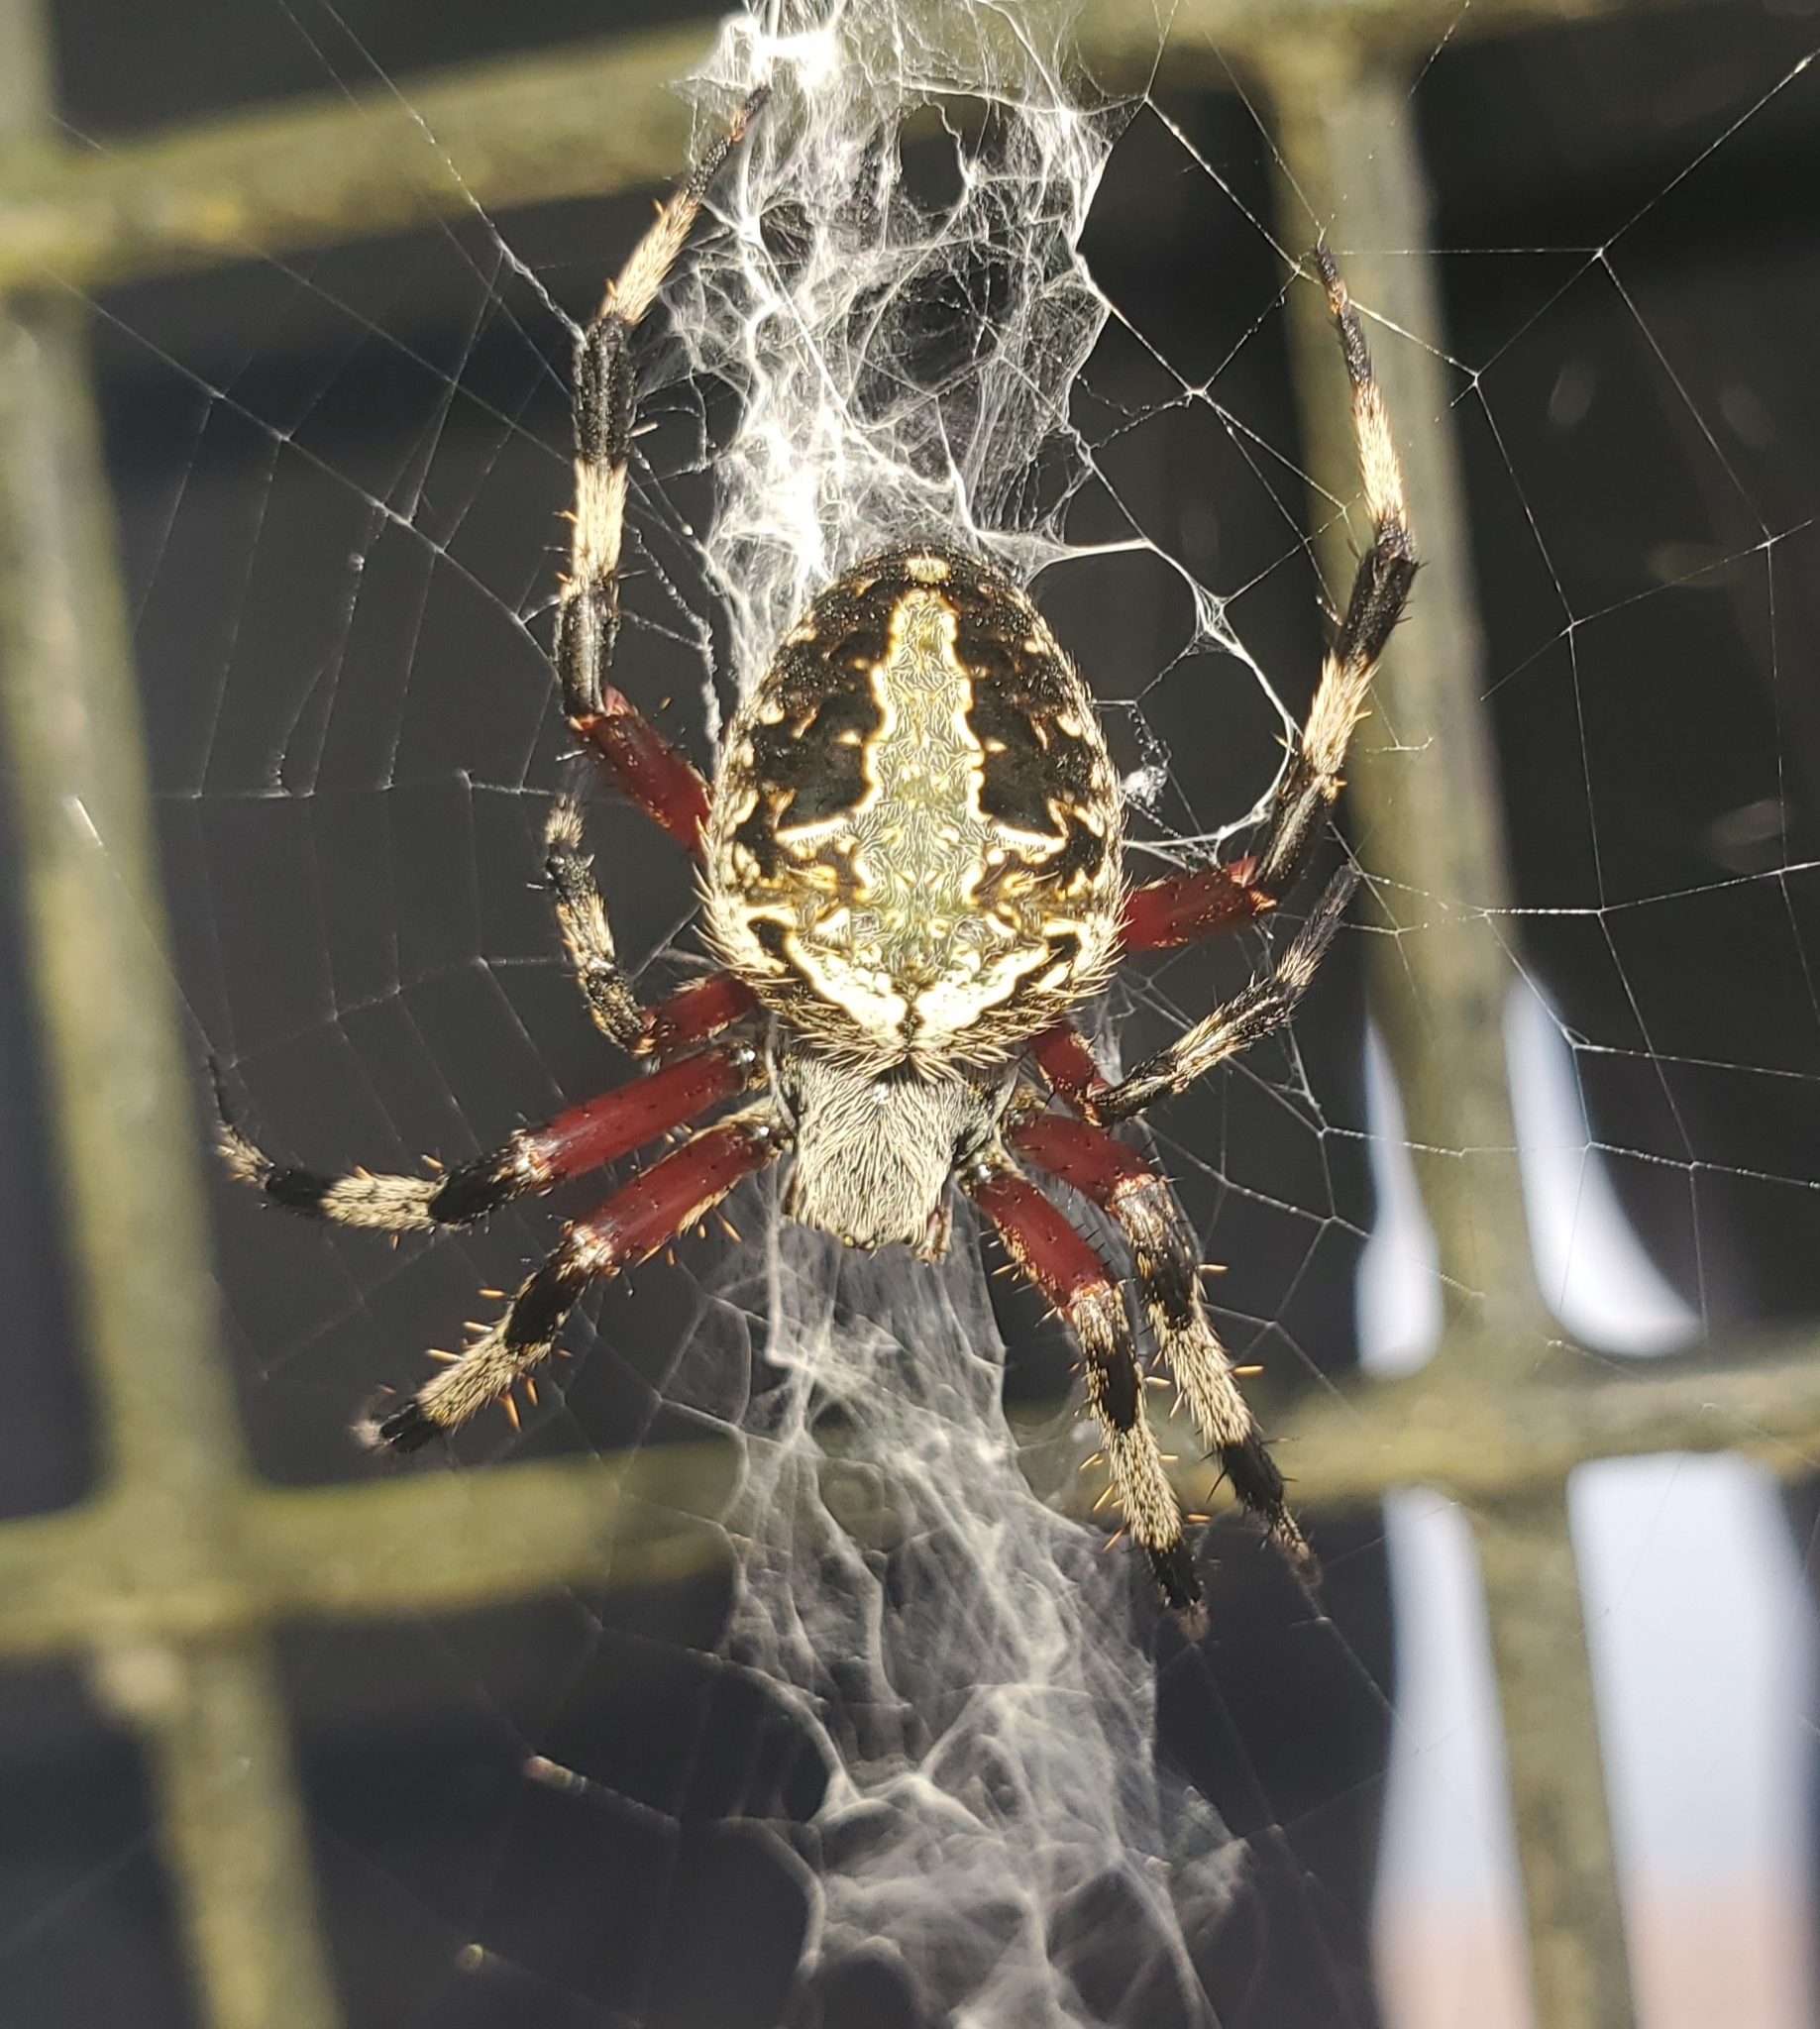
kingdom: Animalia
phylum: Arthropoda
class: Arachnida
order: Araneae
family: Araneidae
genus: Neoscona
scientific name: Neoscona domiciliorum
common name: Red-femured spotted orbweaver
